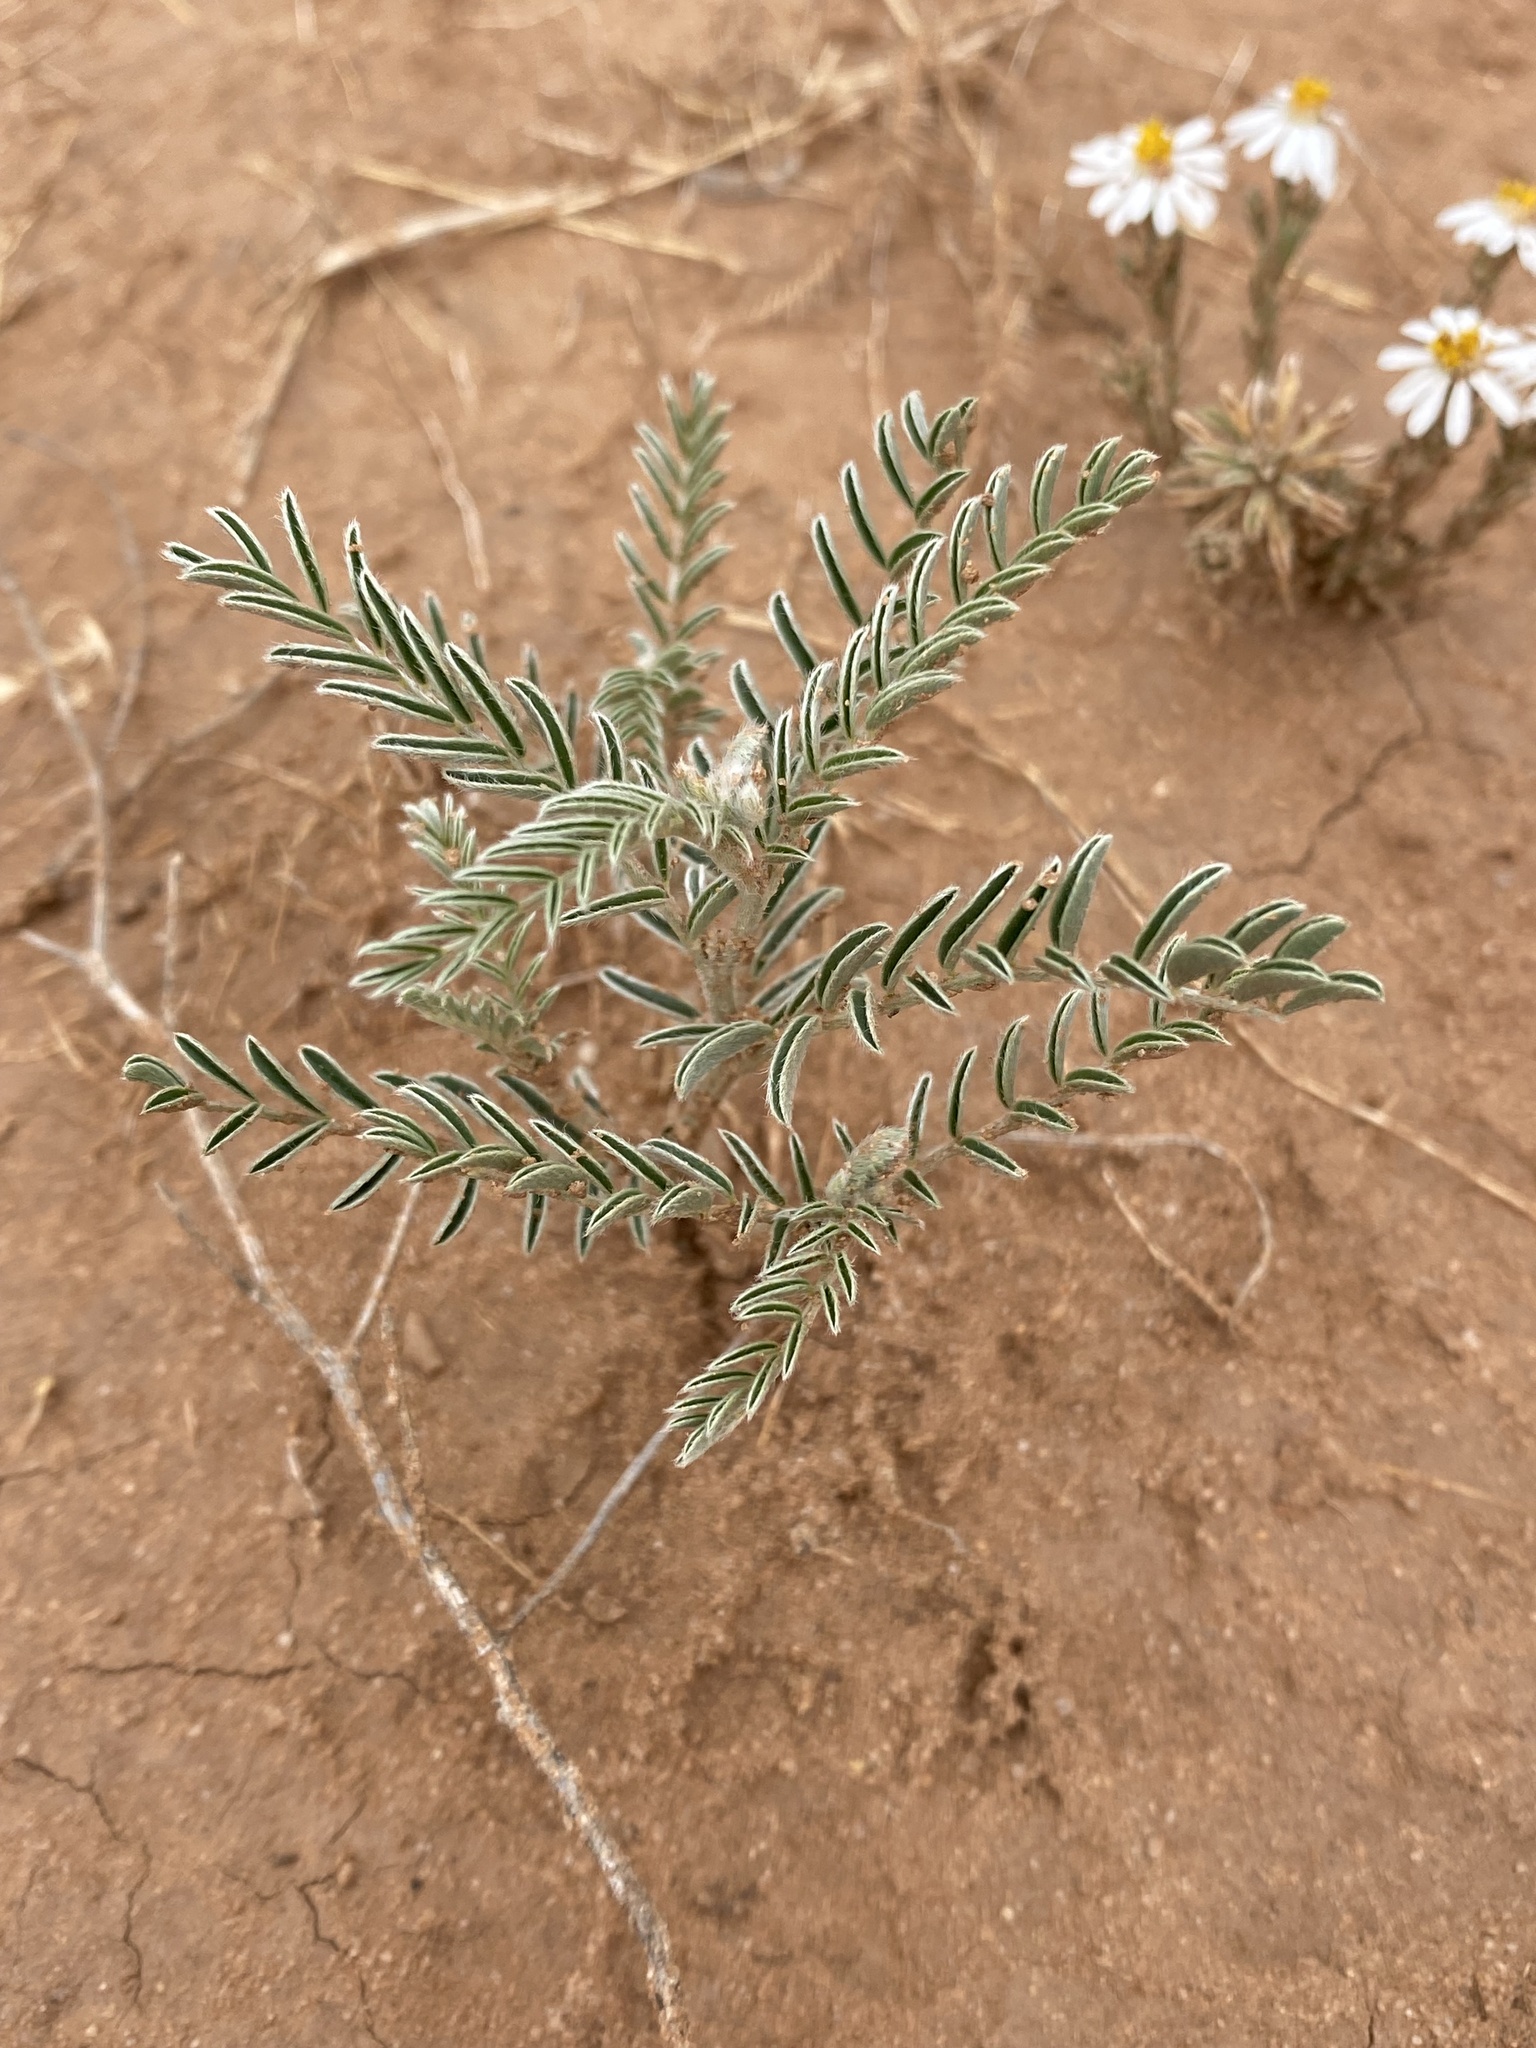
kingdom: Plantae
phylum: Tracheophyta
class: Magnoliopsida
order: Fabales
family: Fabaceae
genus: Sophora
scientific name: Sophora nuttalliana
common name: Silky sophora
